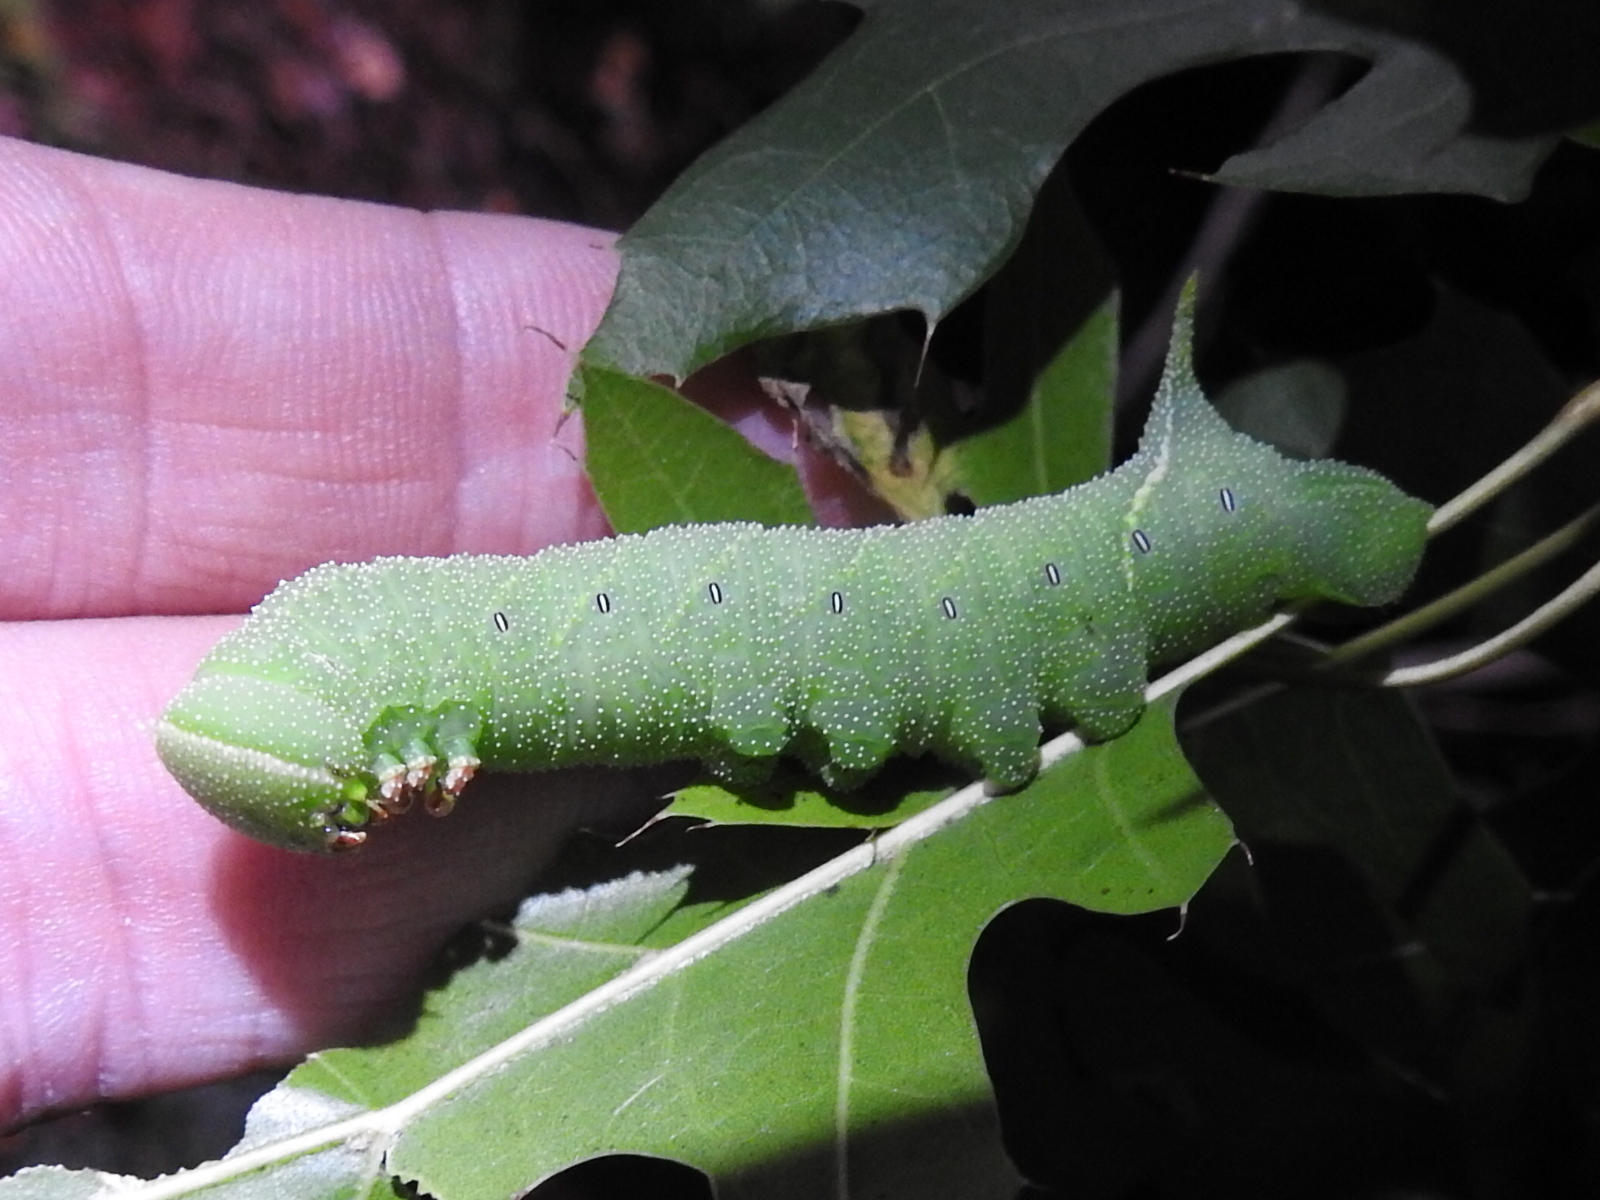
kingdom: Animalia
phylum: Arthropoda
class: Insecta
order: Lepidoptera
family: Sphingidae
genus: Paonias
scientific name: Paonias excaecata
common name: Blind-eyed sphinx
